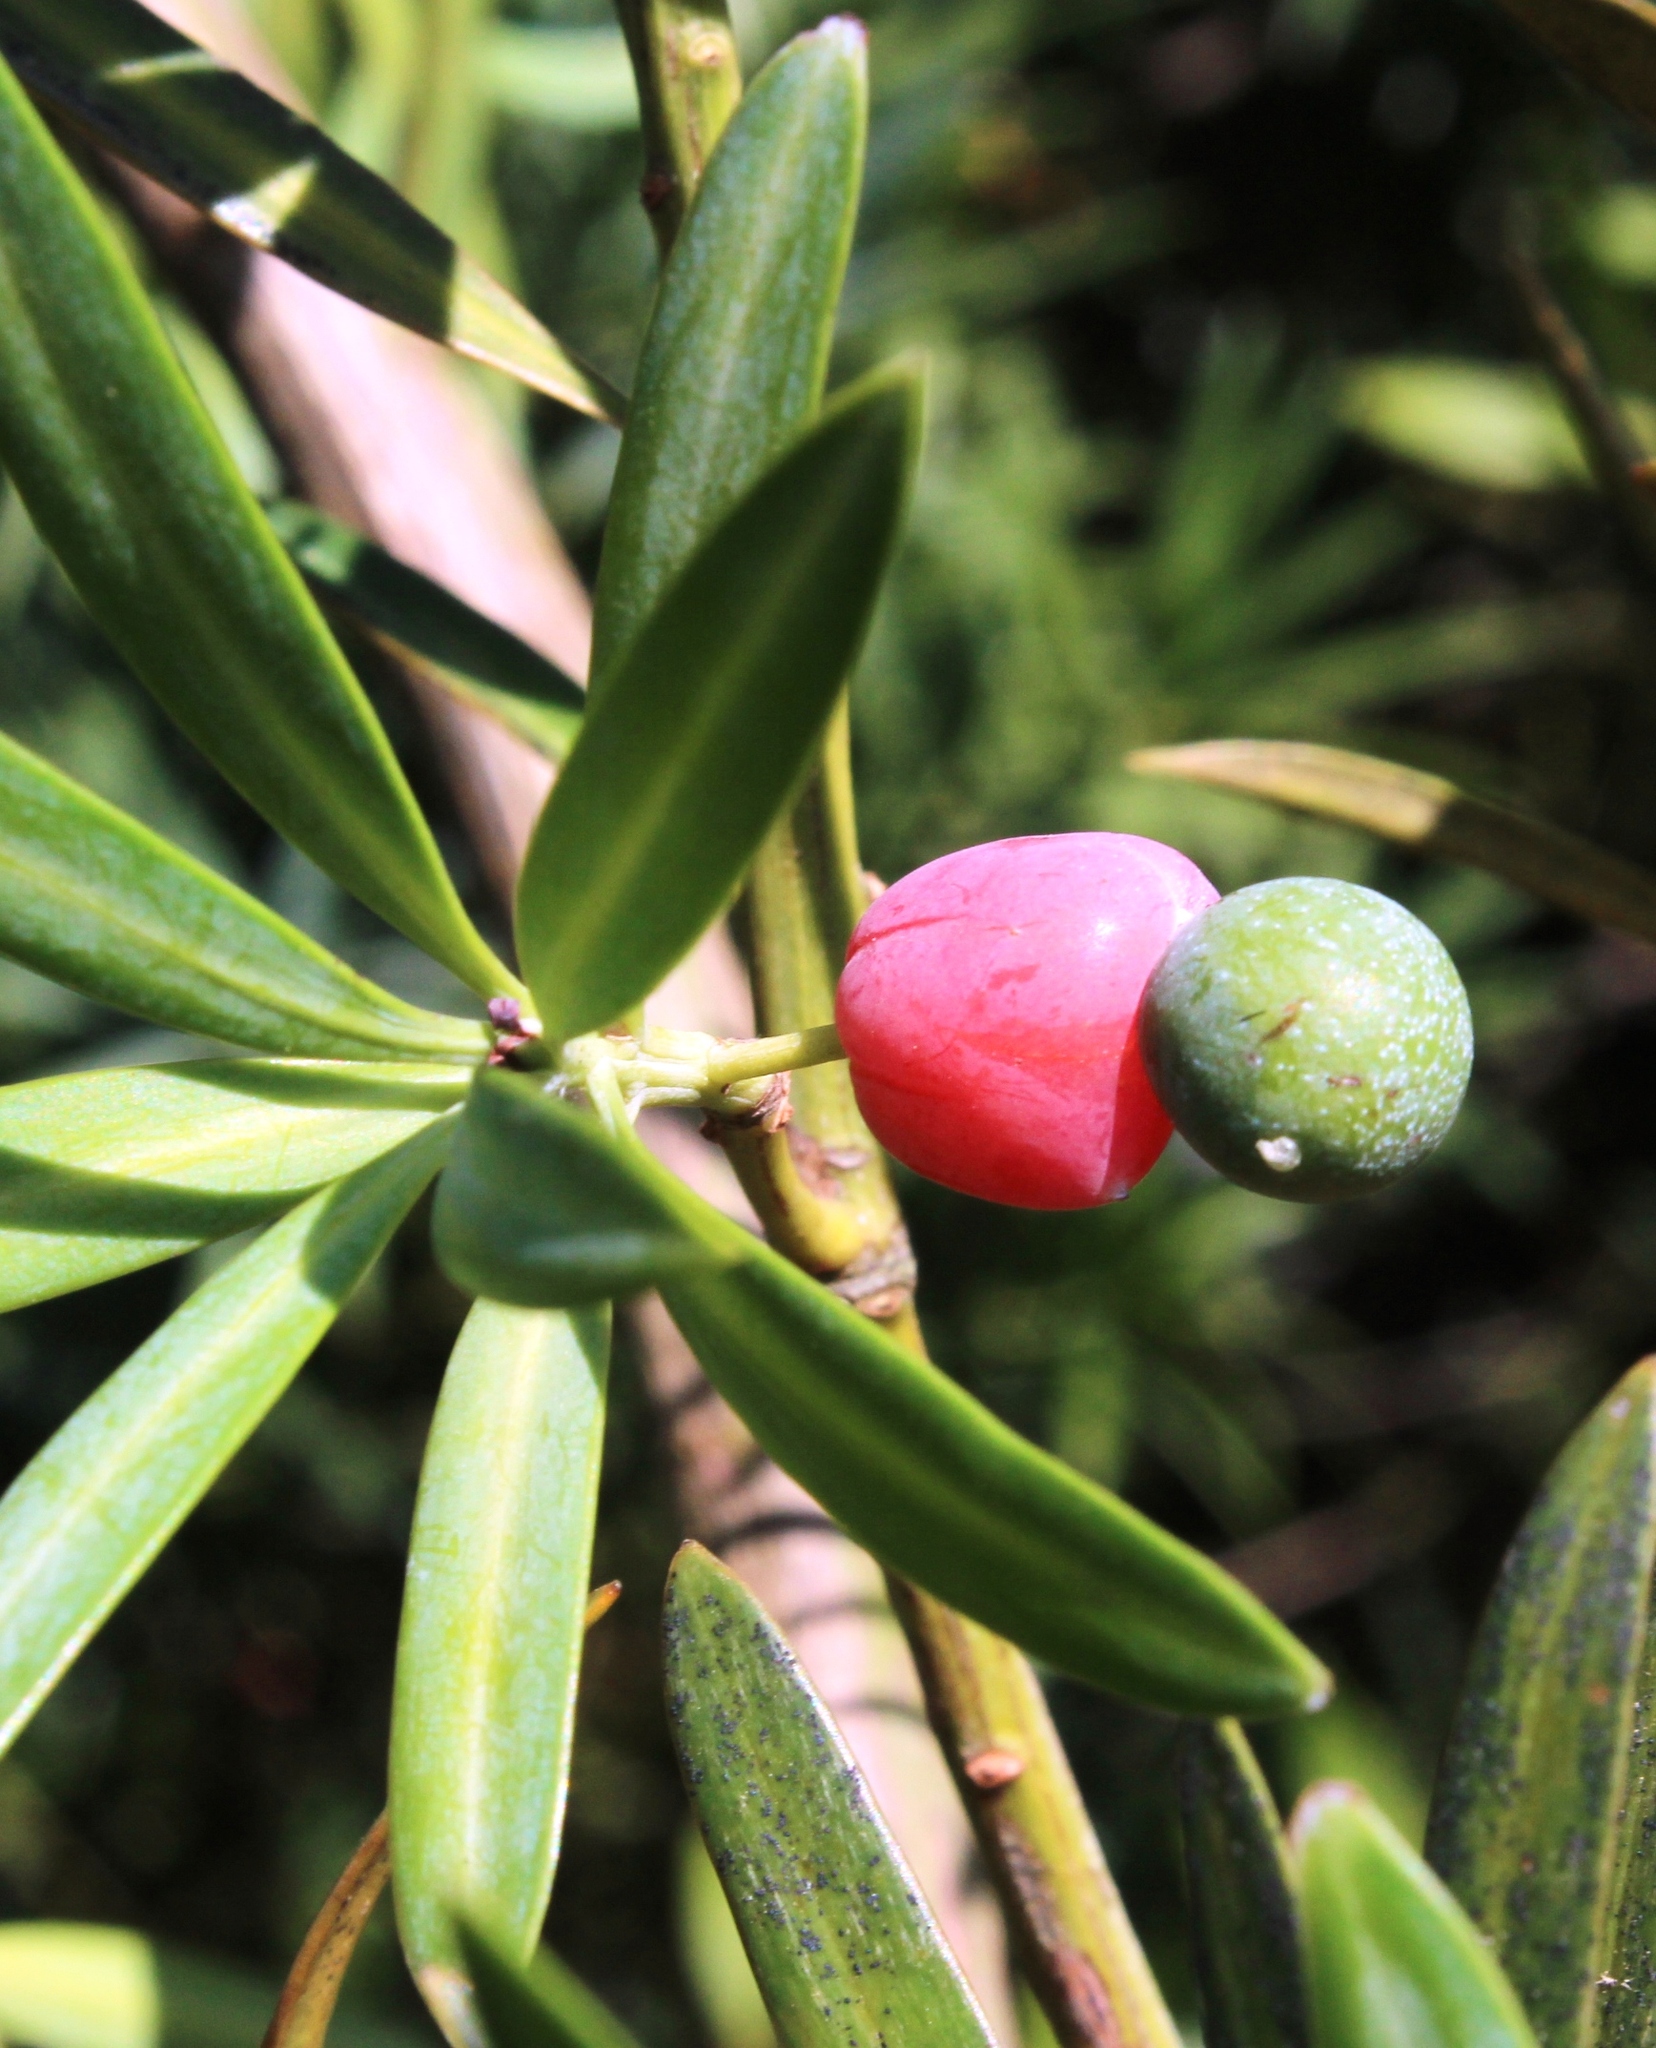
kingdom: Plantae
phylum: Tracheophyta
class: Pinopsida
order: Pinales
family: Podocarpaceae
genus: Podocarpus
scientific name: Podocarpus elongatus
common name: Breede river yellowwood
